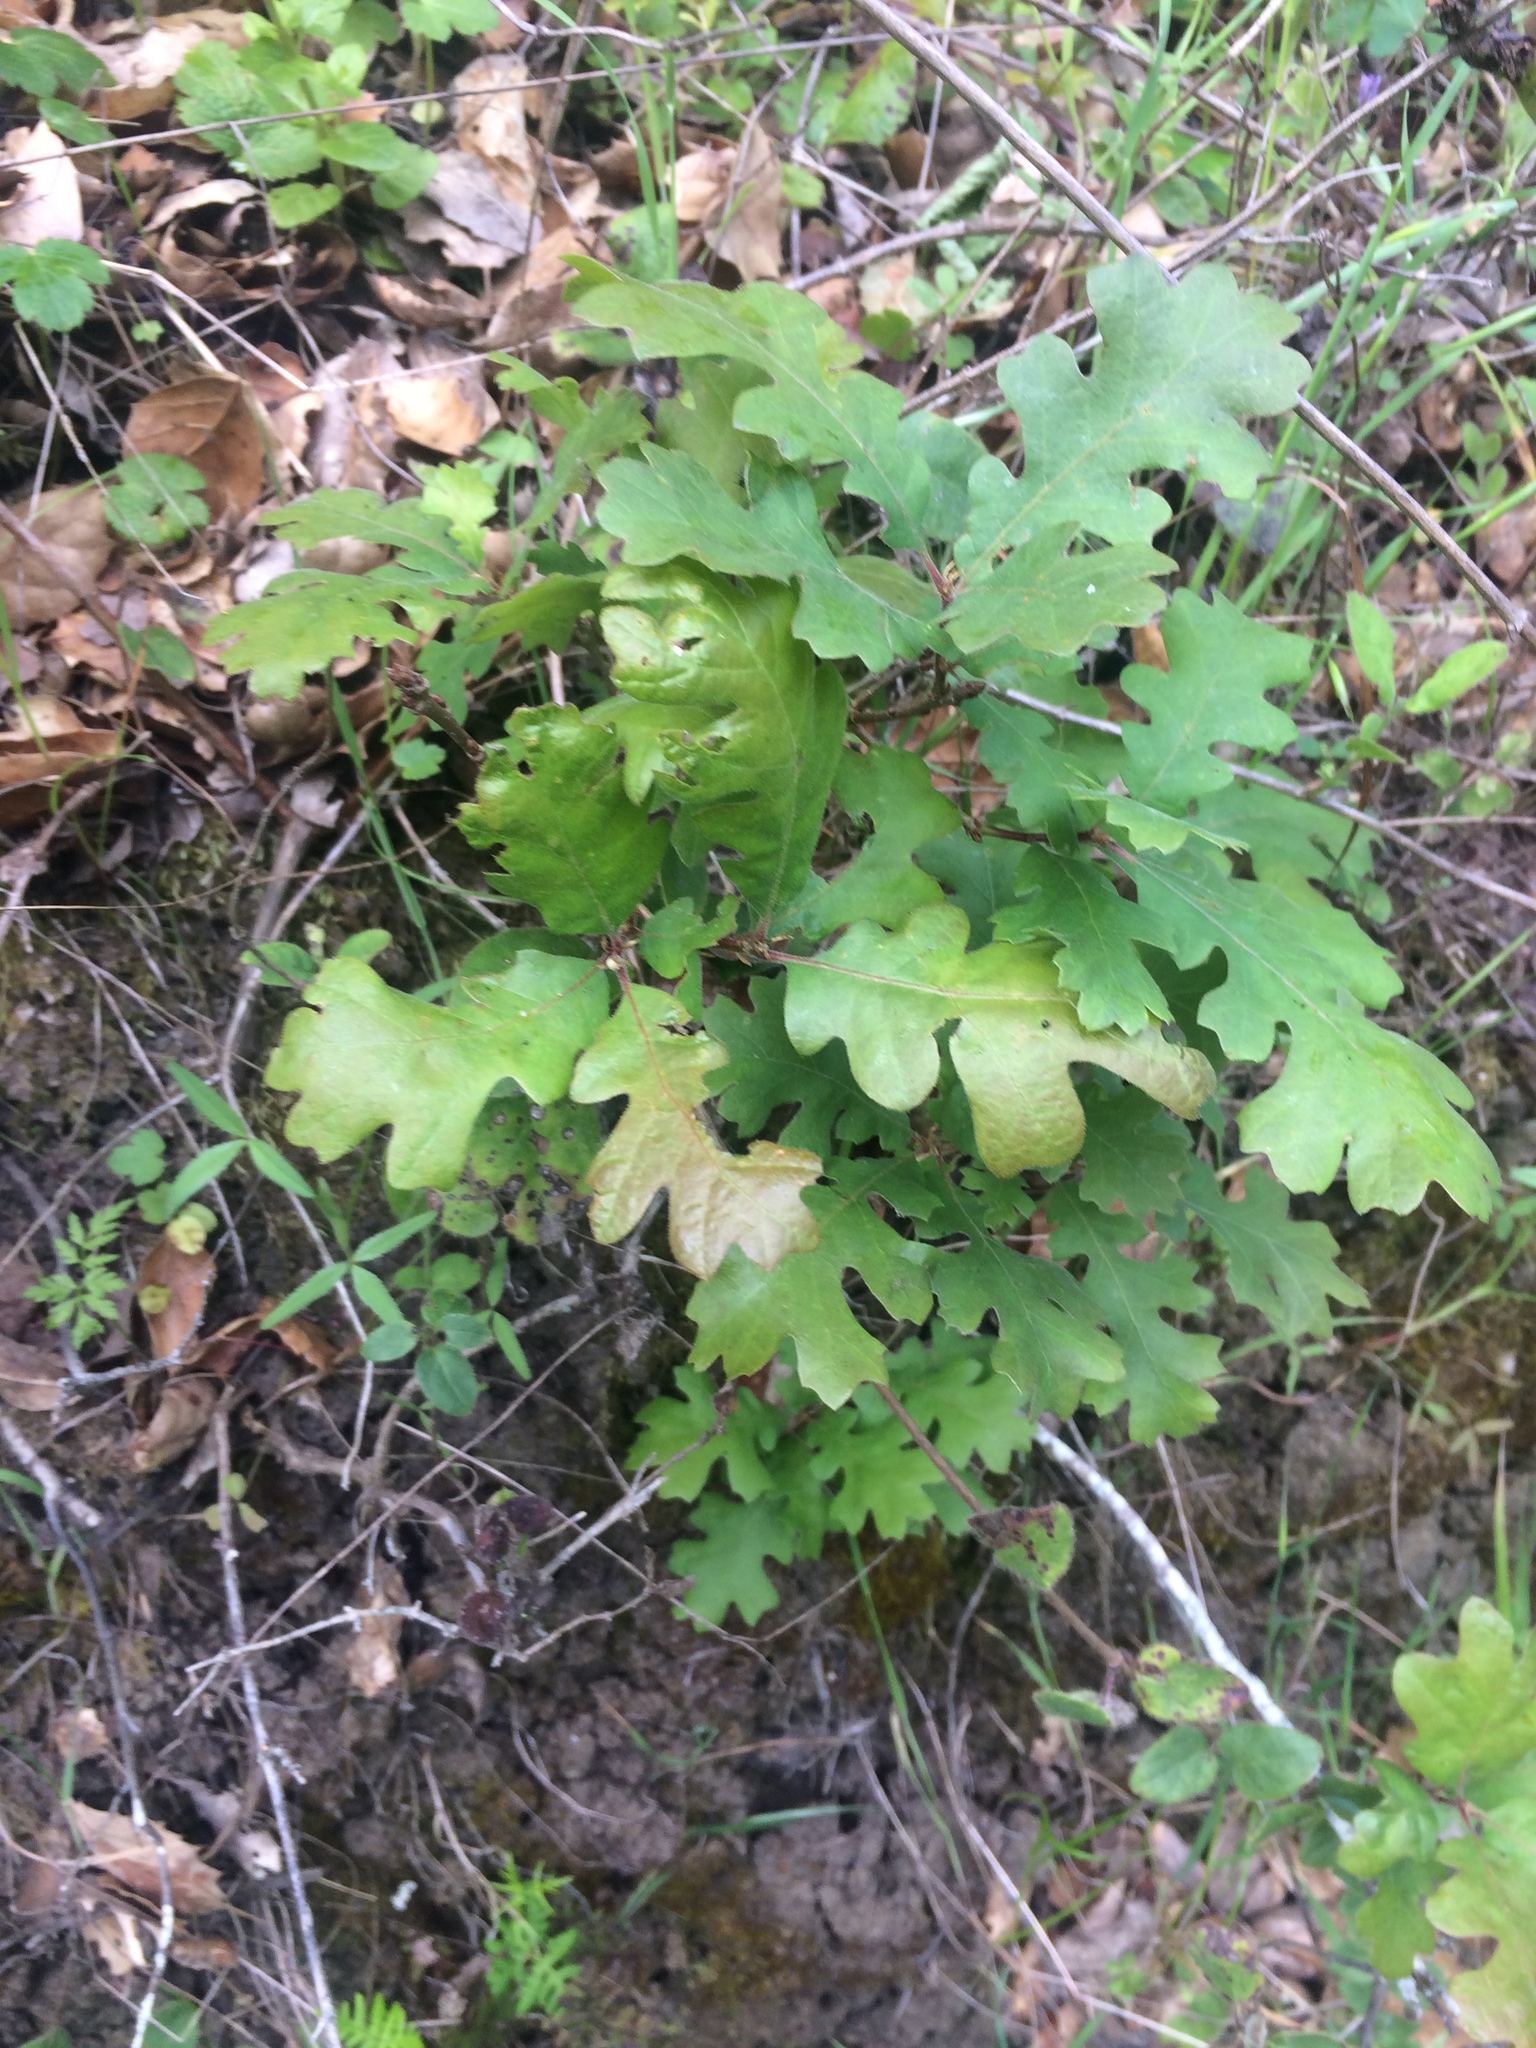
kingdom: Plantae
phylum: Tracheophyta
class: Magnoliopsida
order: Fagales
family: Fagaceae
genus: Quercus
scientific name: Quercus lobata
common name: Valley oak
